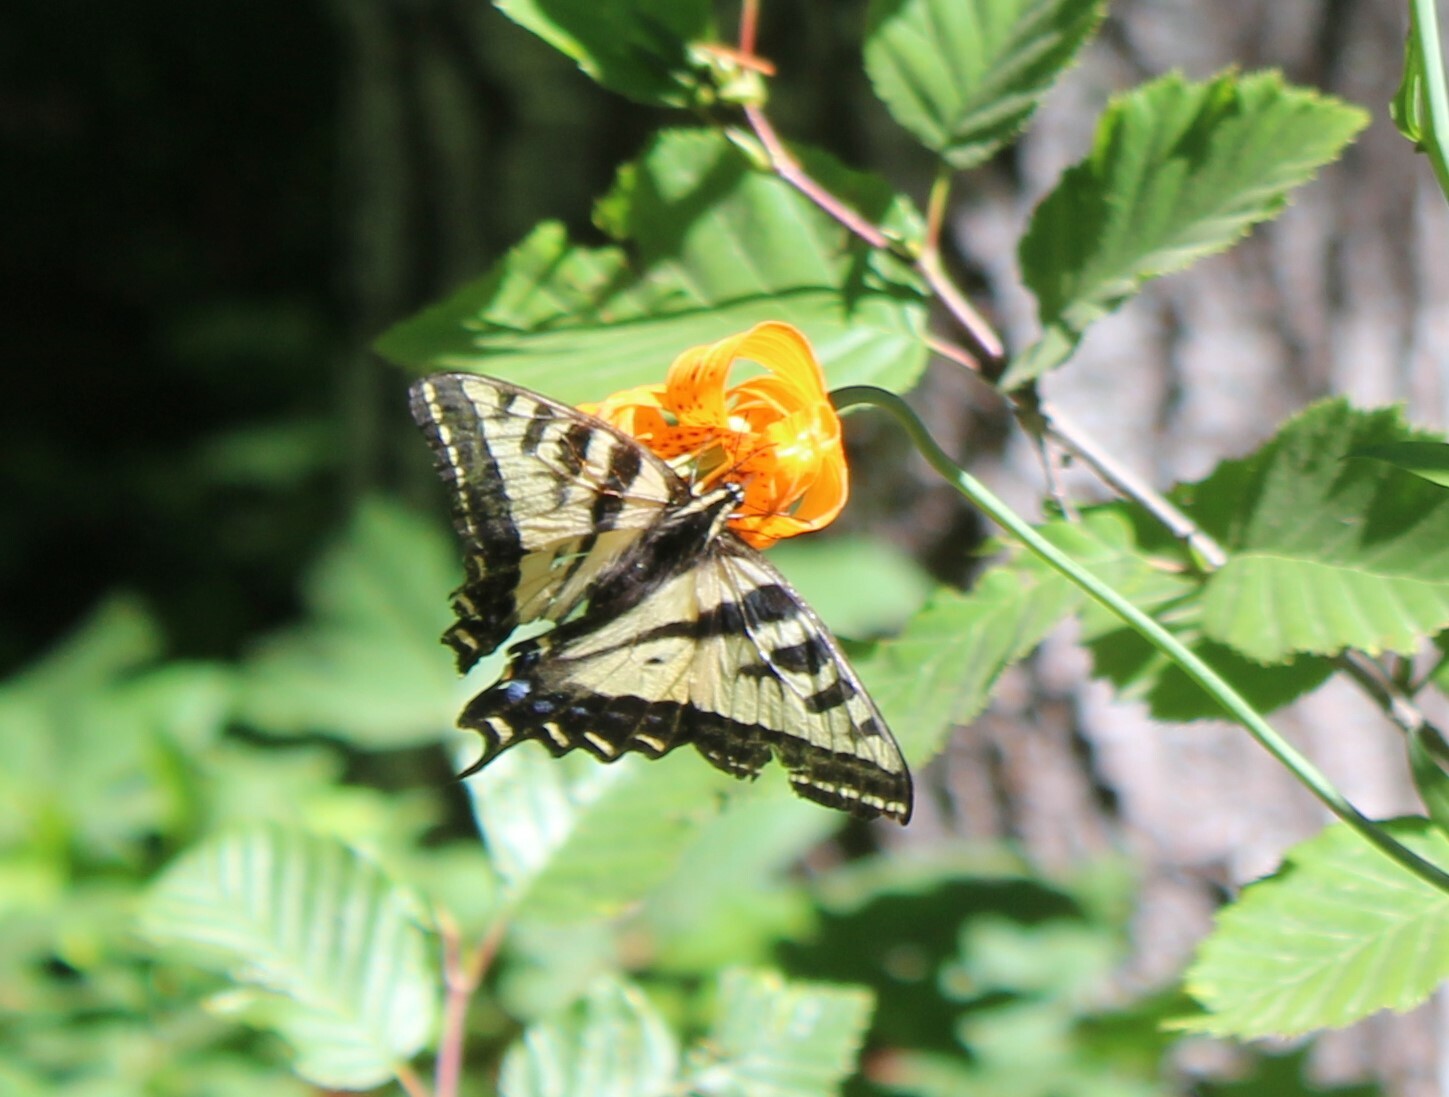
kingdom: Animalia
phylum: Arthropoda
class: Insecta
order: Lepidoptera
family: Papilionidae
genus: Papilio
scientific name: Papilio rutulus
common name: Western tiger swallowtail
